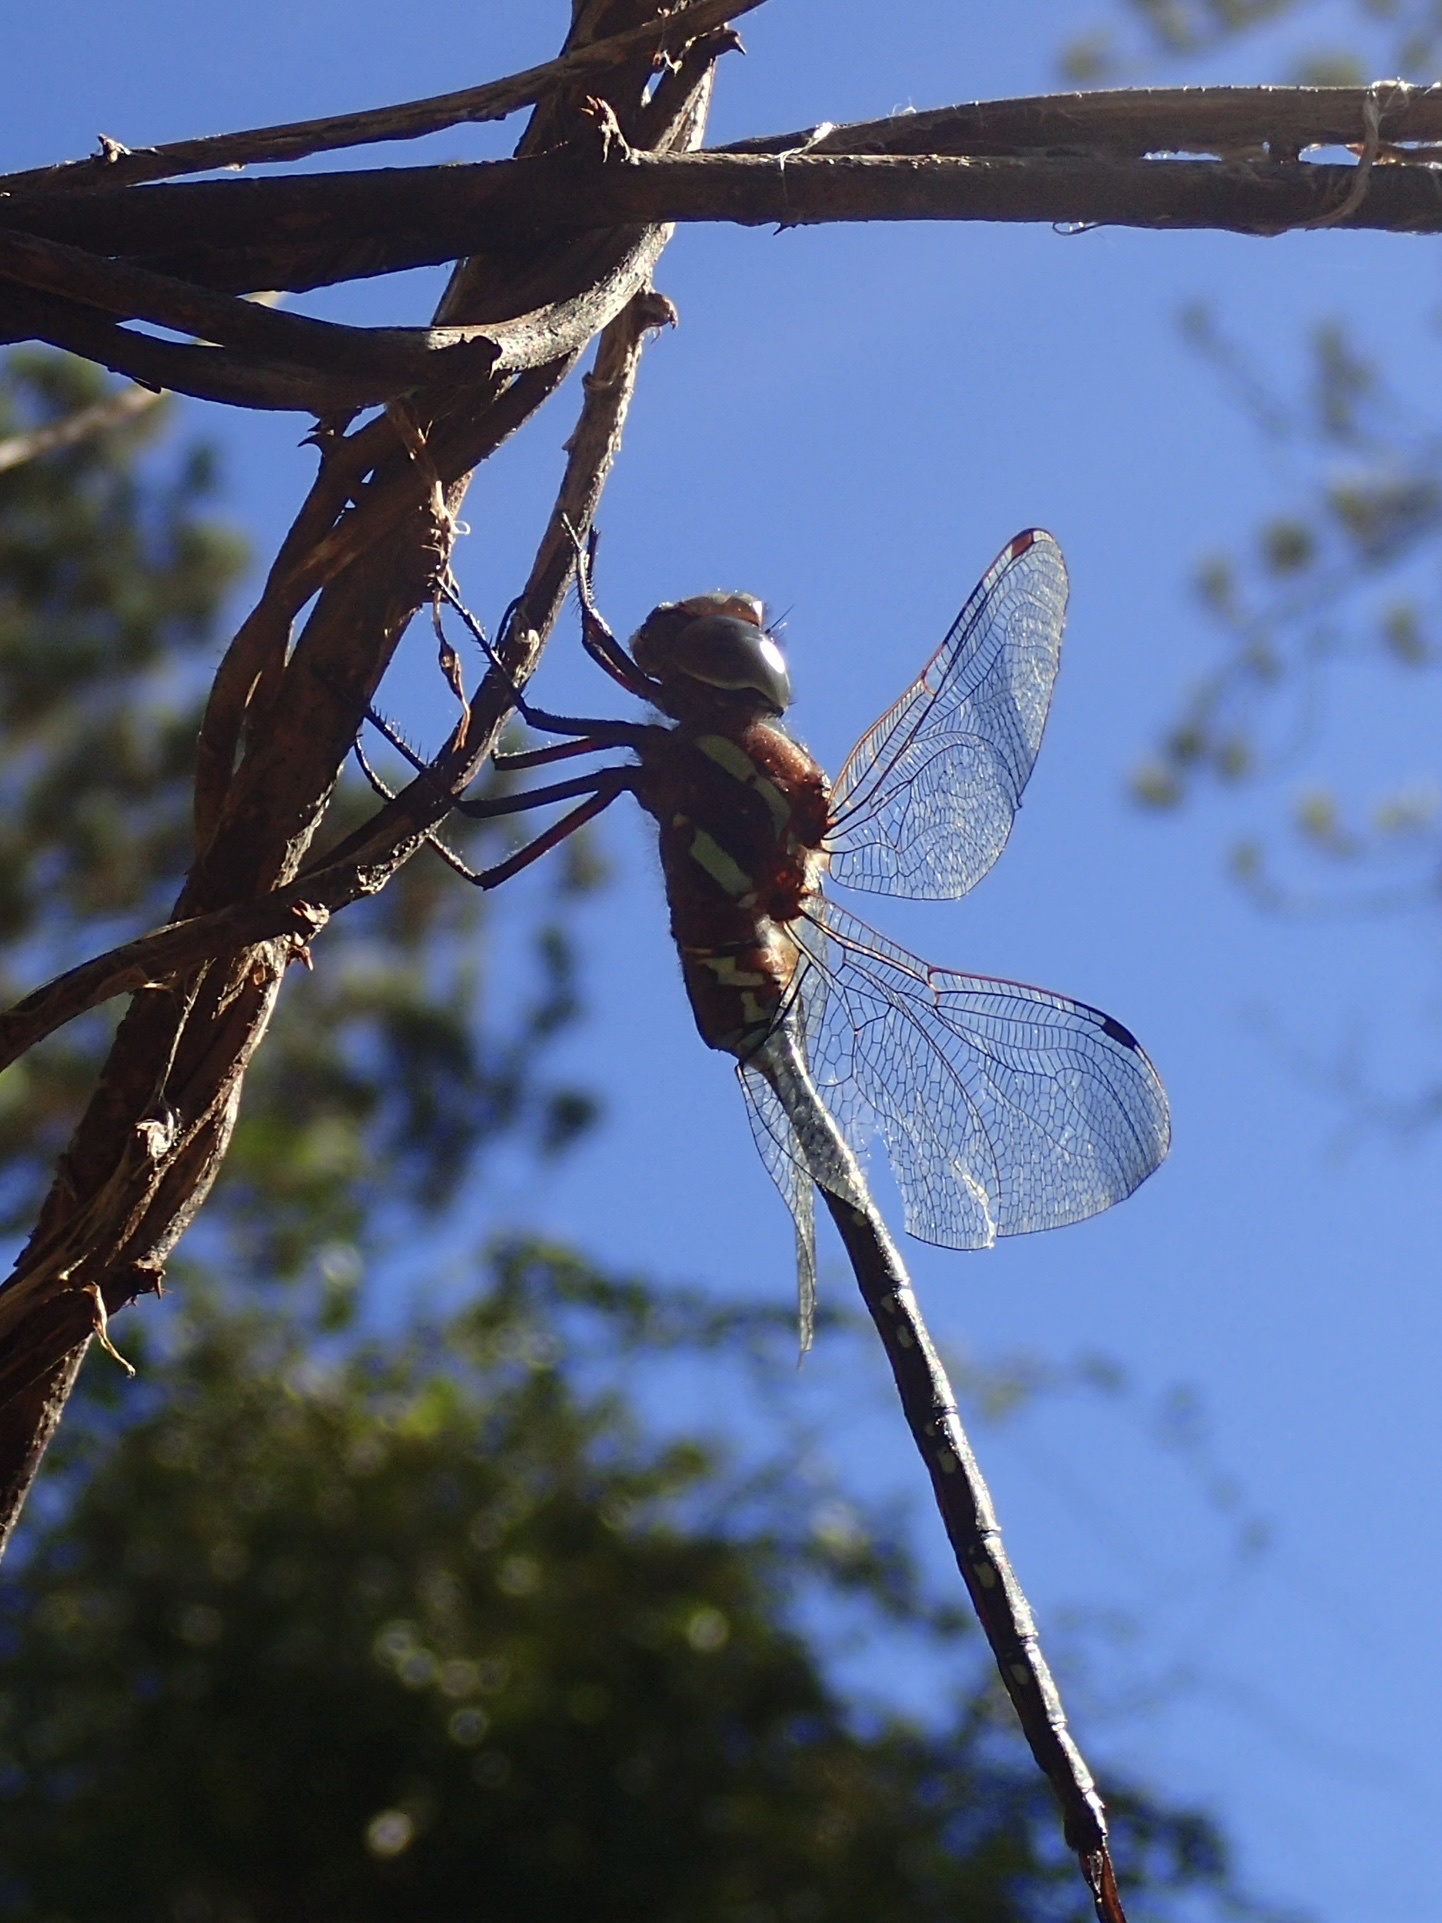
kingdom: Animalia
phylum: Arthropoda
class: Insecta
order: Odonata
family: Aeshnidae
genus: Aeshna
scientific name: Aeshna tuberculifera
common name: Aeschne à tubercules
